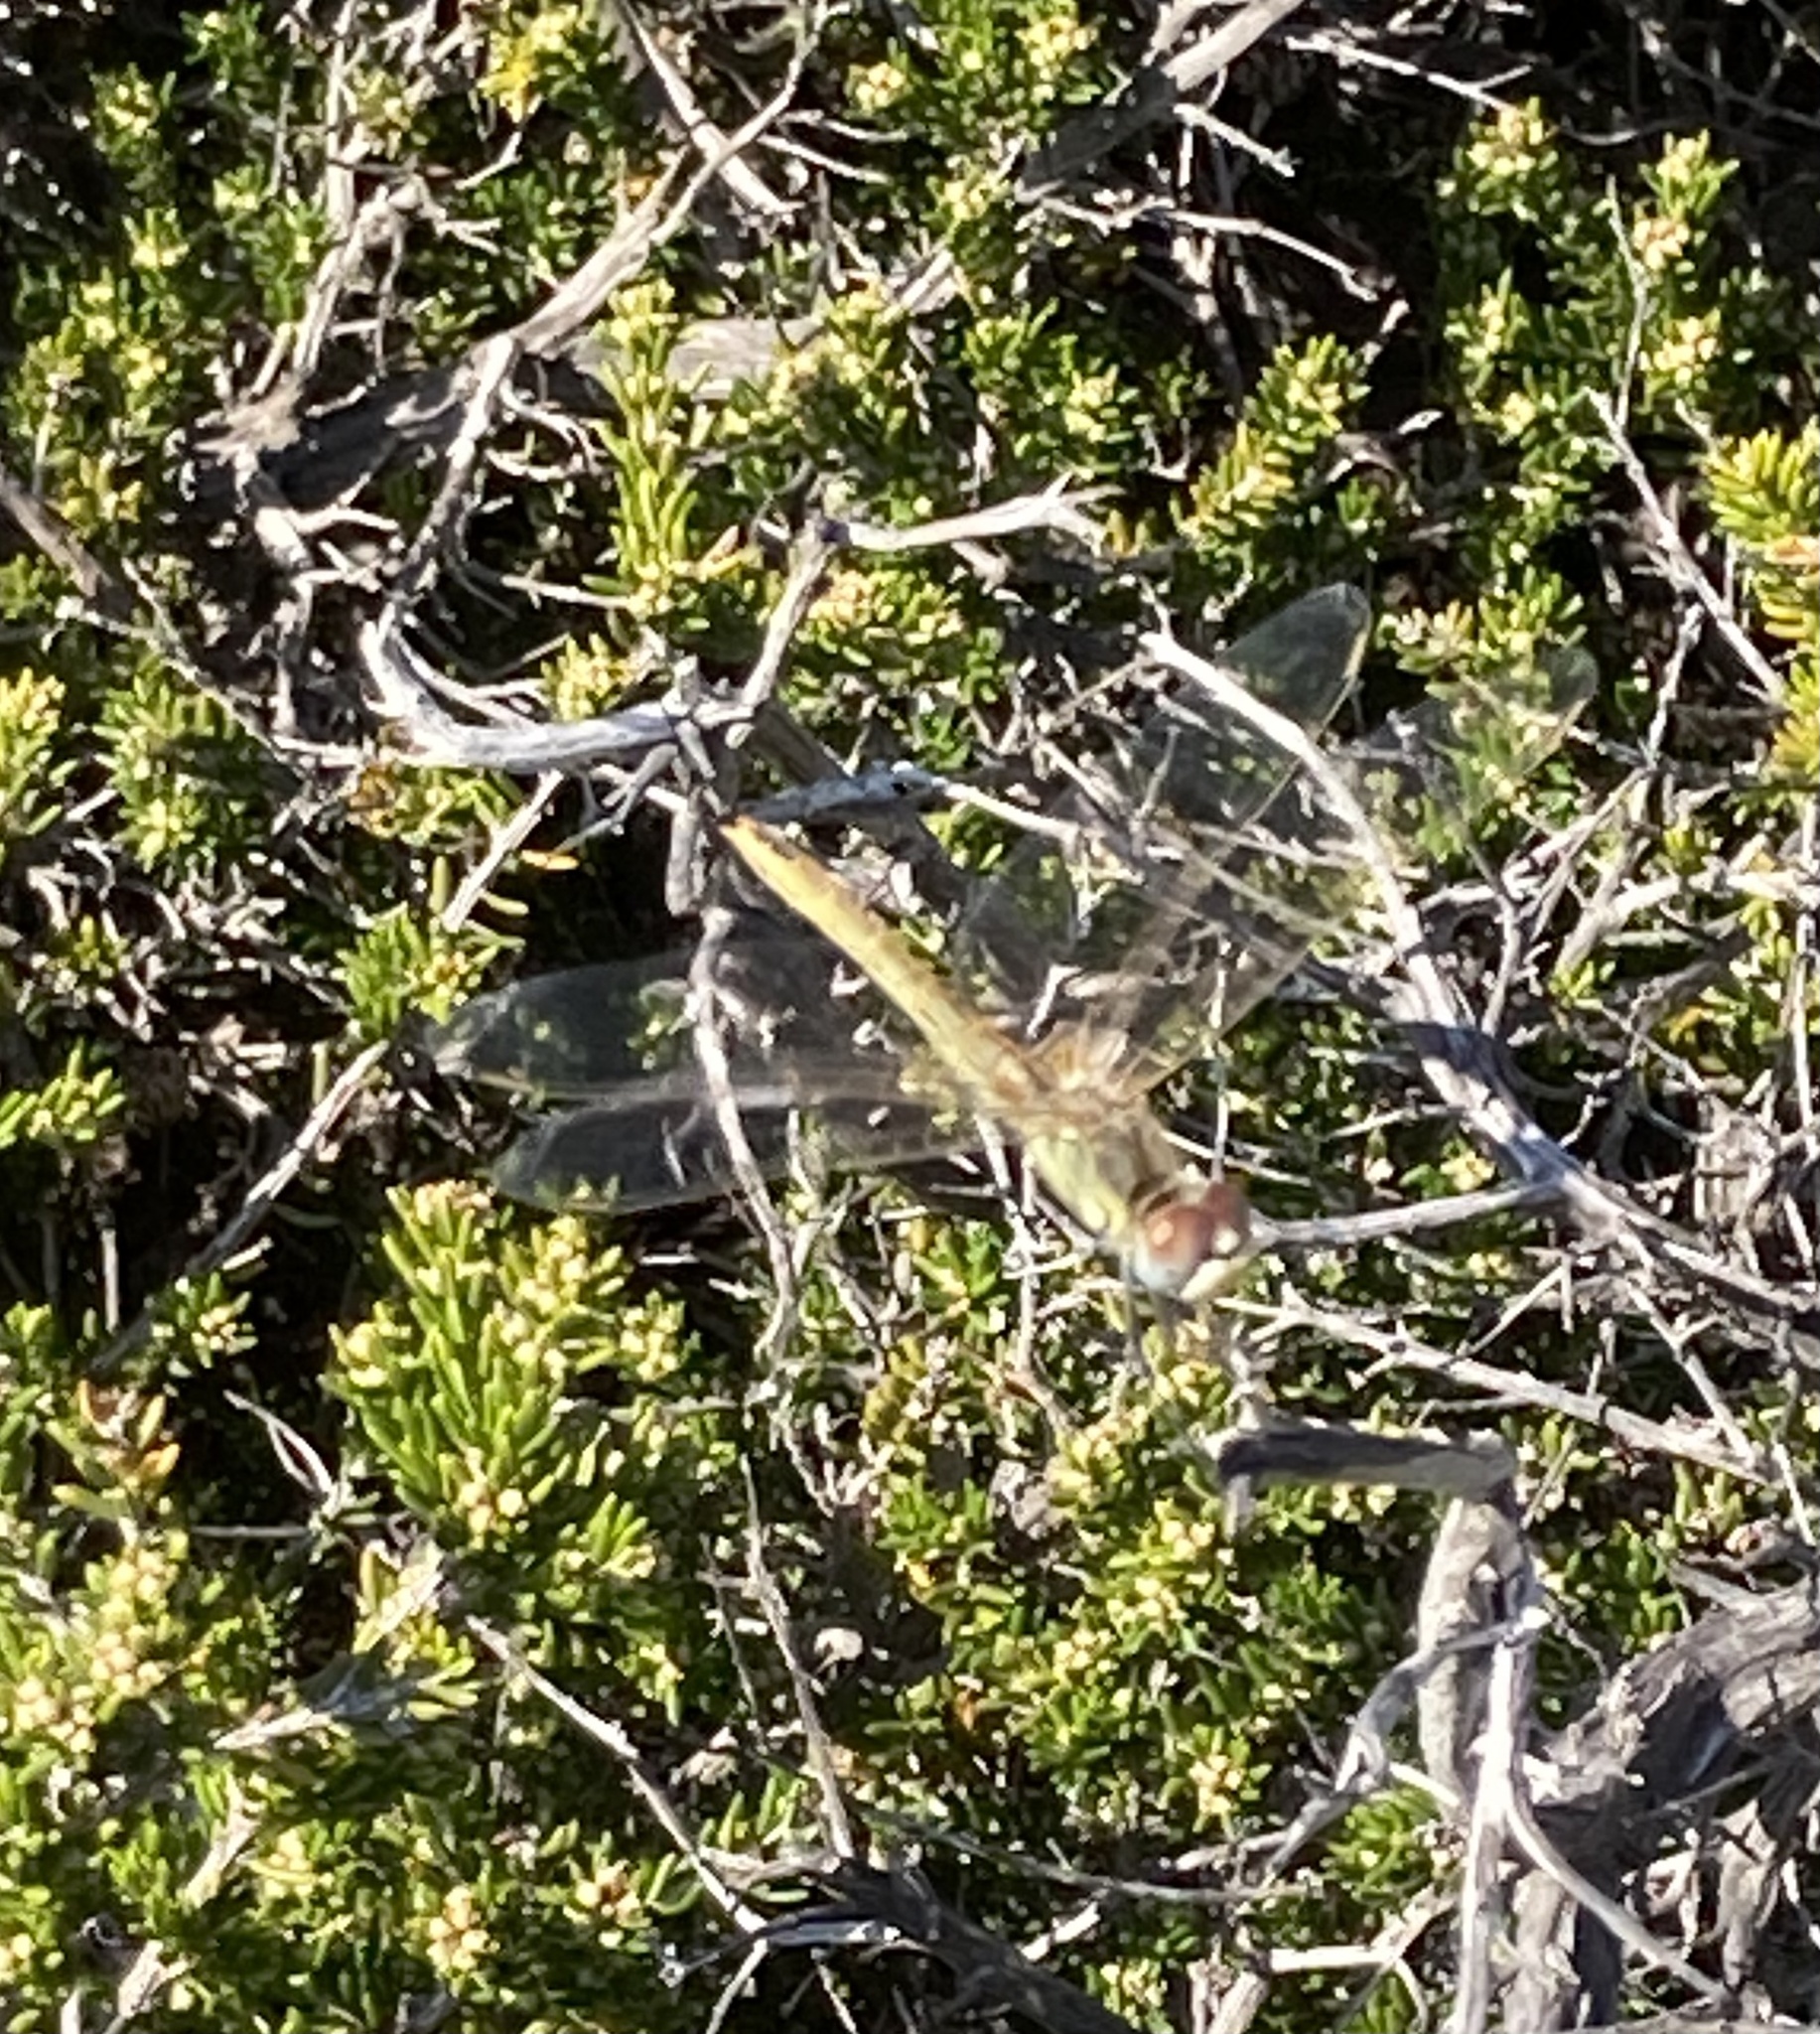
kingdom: Animalia
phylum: Arthropoda
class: Insecta
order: Odonata
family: Libellulidae
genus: Sympetrum
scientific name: Sympetrum fonscolombii
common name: Red-veined darter
